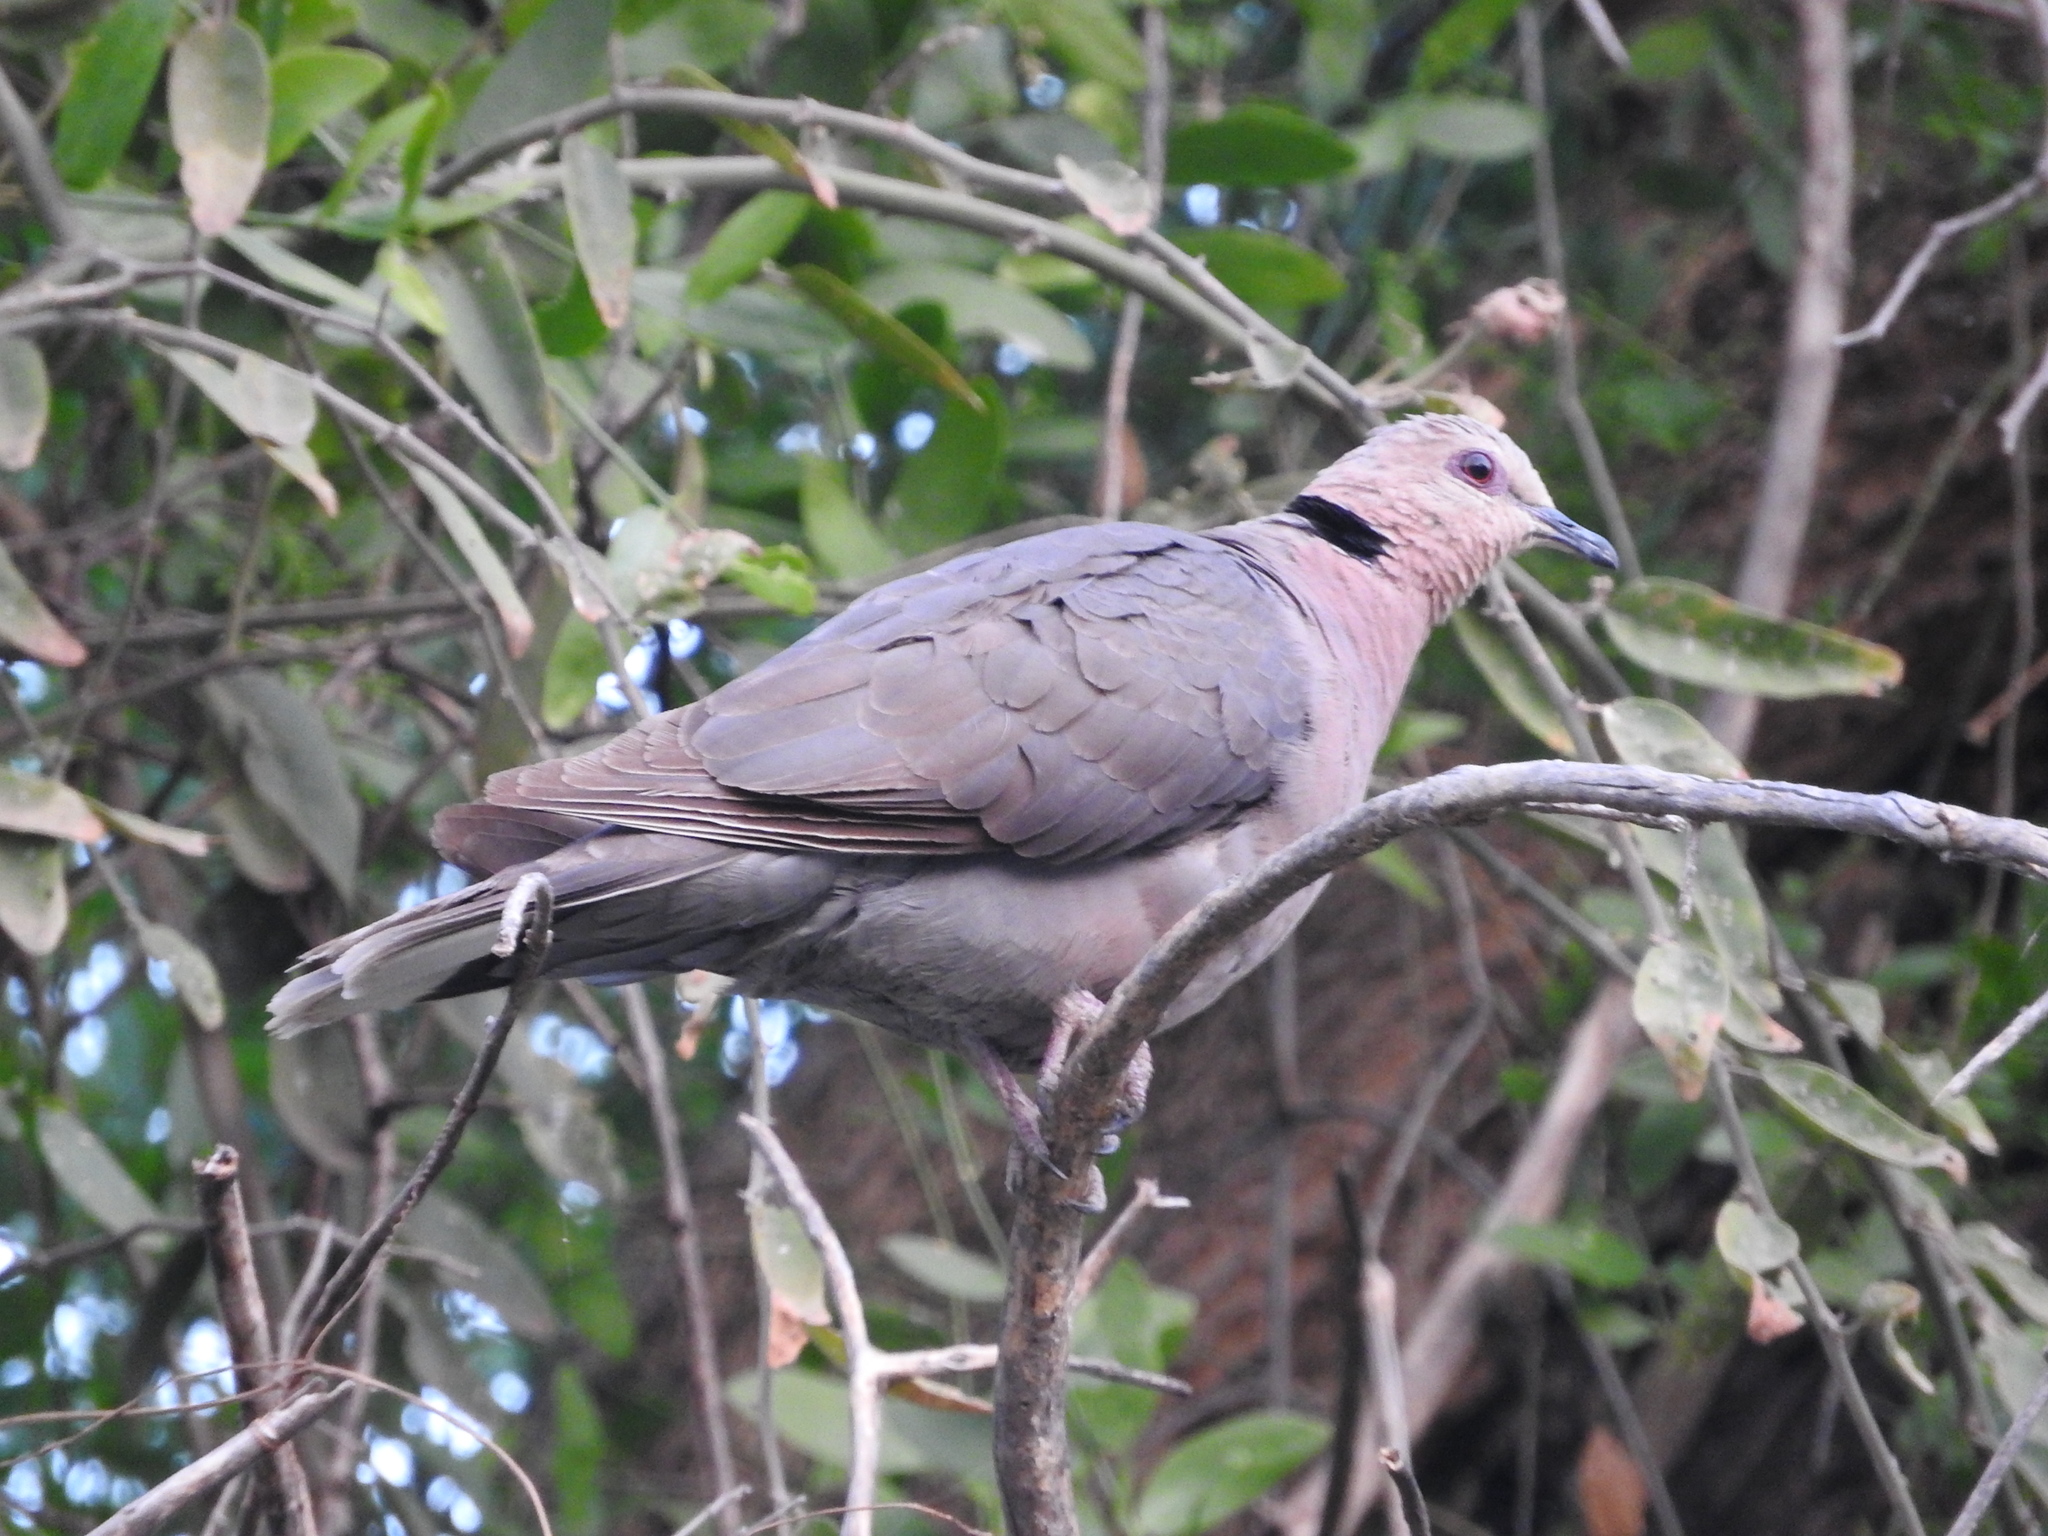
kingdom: Animalia
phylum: Chordata
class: Aves
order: Columbiformes
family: Columbidae
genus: Streptopelia
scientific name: Streptopelia semitorquata
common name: Red-eyed dove
